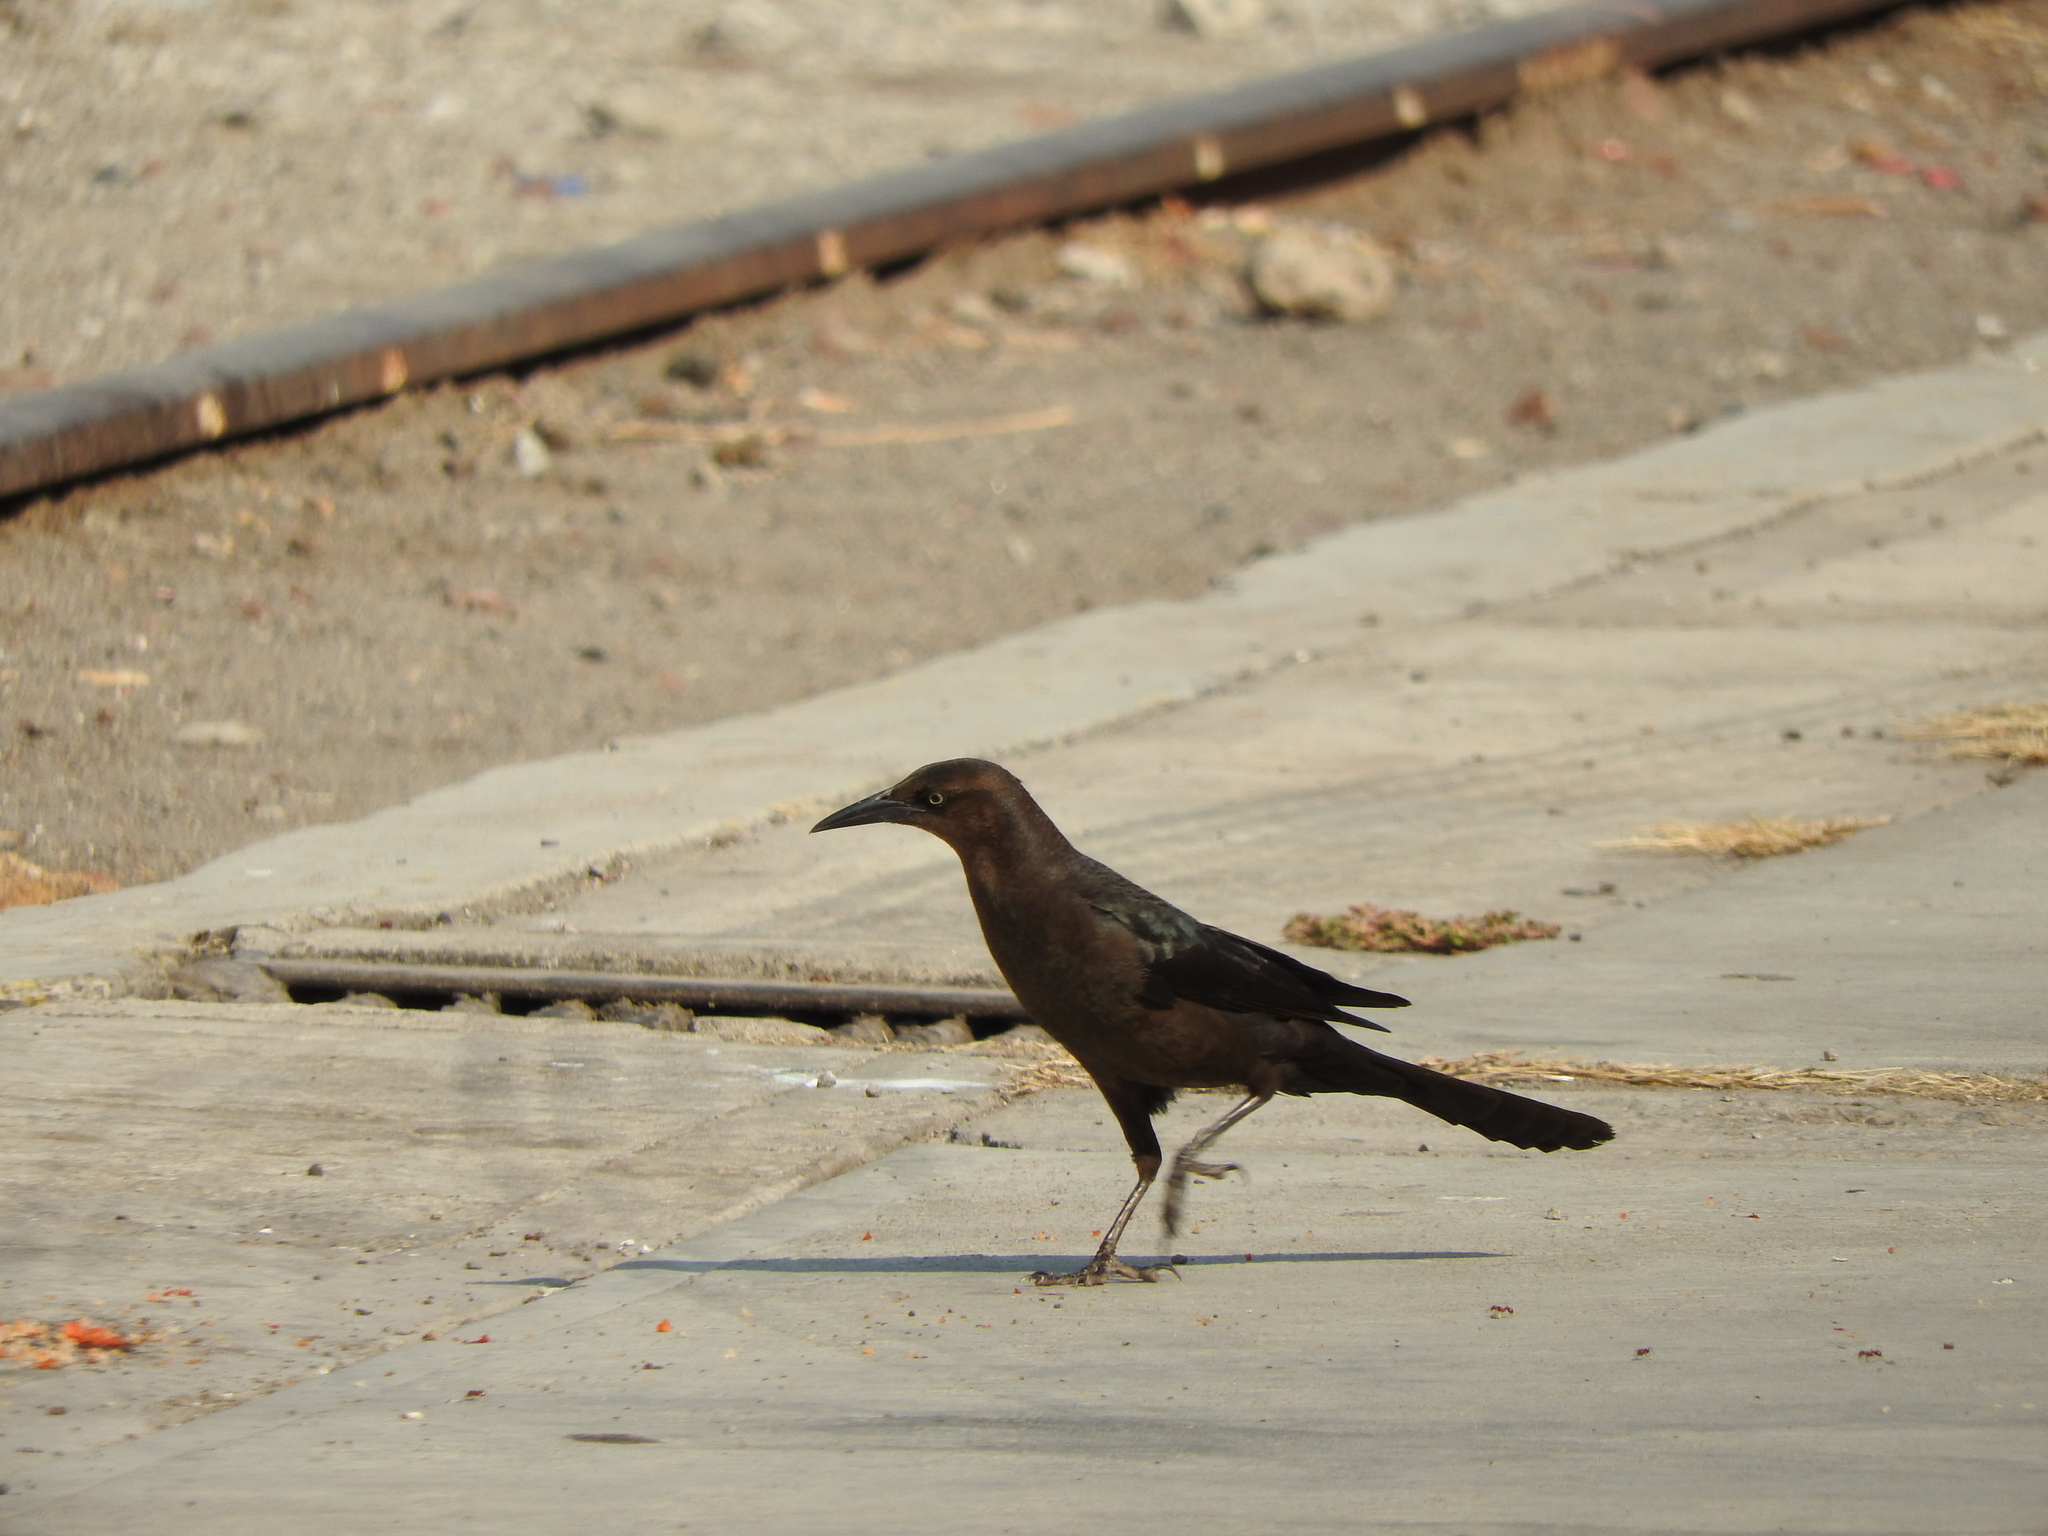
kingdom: Animalia
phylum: Chordata
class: Aves
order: Passeriformes
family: Icteridae
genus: Quiscalus
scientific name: Quiscalus mexicanus
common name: Great-tailed grackle
